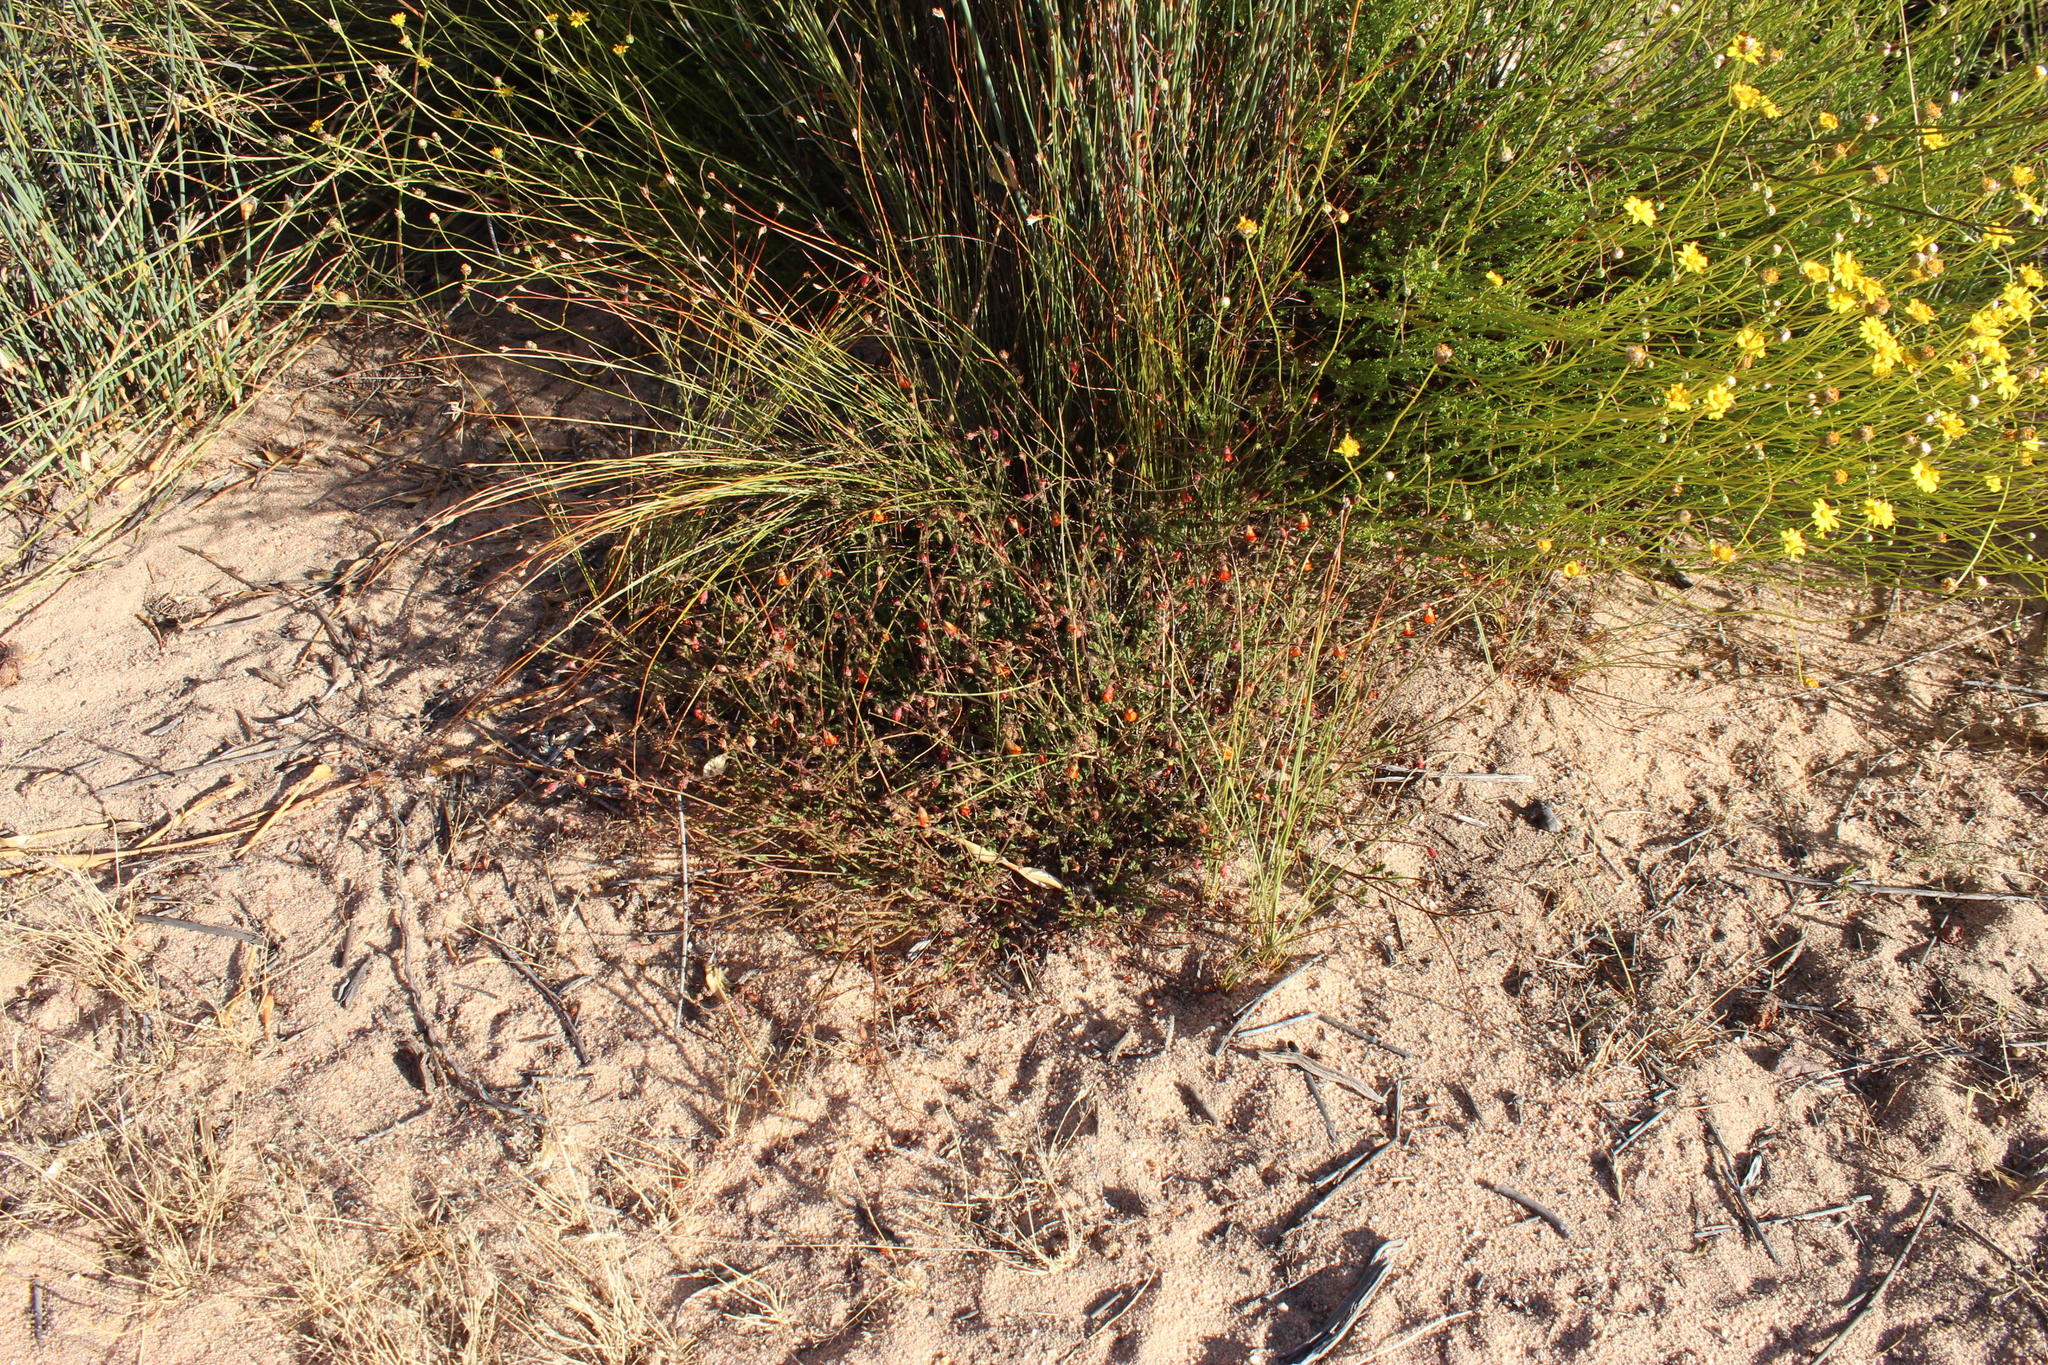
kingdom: Plantae
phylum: Tracheophyta
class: Magnoliopsida
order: Malvales
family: Malvaceae
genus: Hermannia
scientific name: Hermannia muricata
